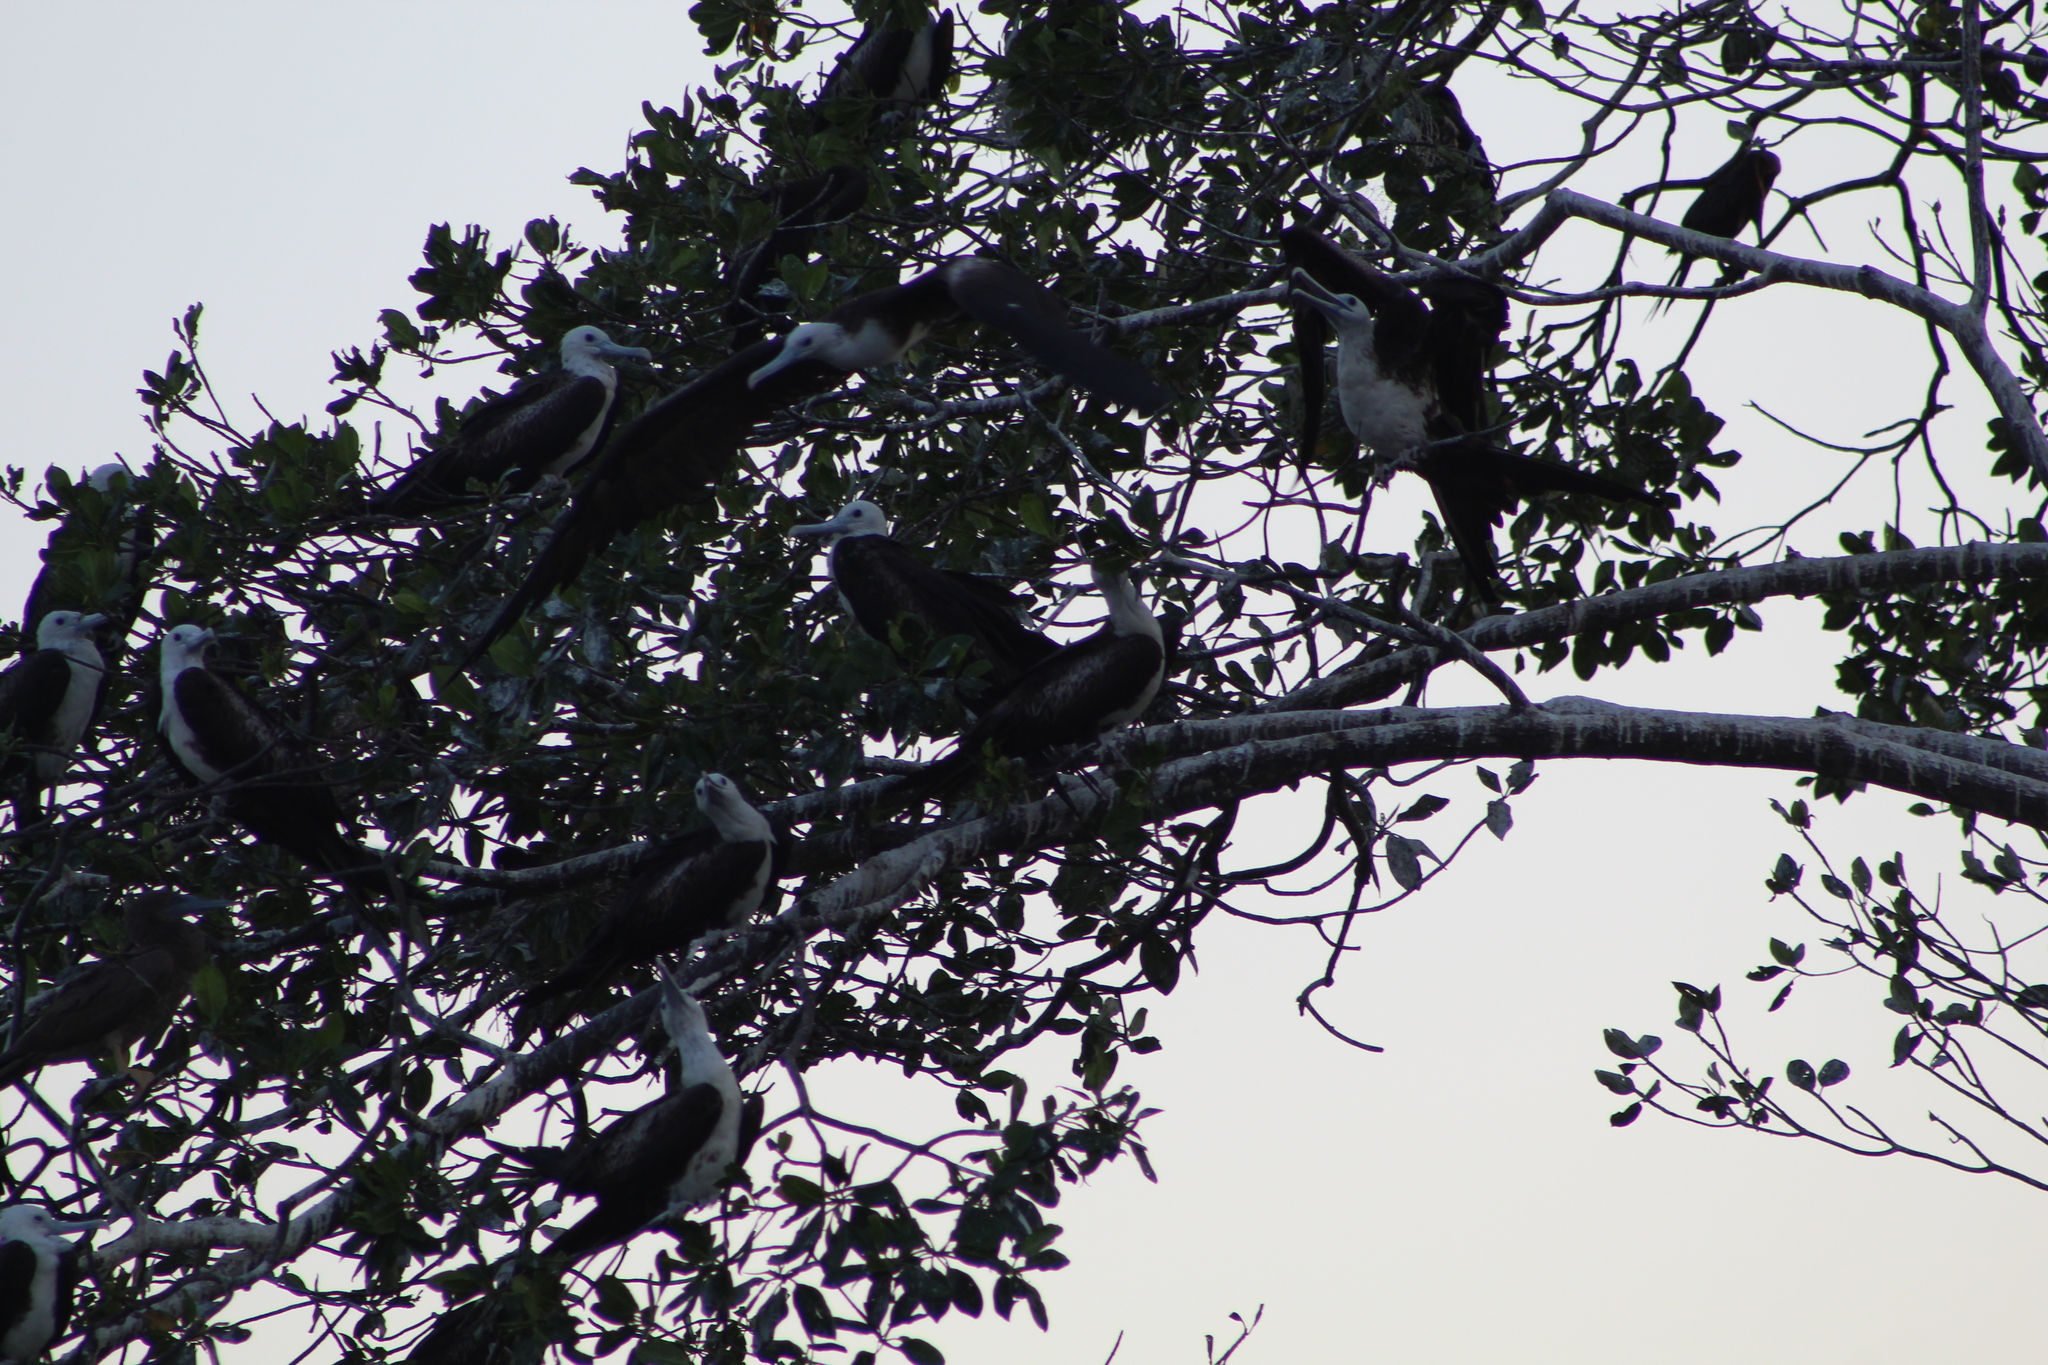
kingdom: Animalia
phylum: Chordata
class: Aves
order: Suliformes
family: Fregatidae
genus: Fregata
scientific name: Fregata magnificens
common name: Magnificent frigatebird
